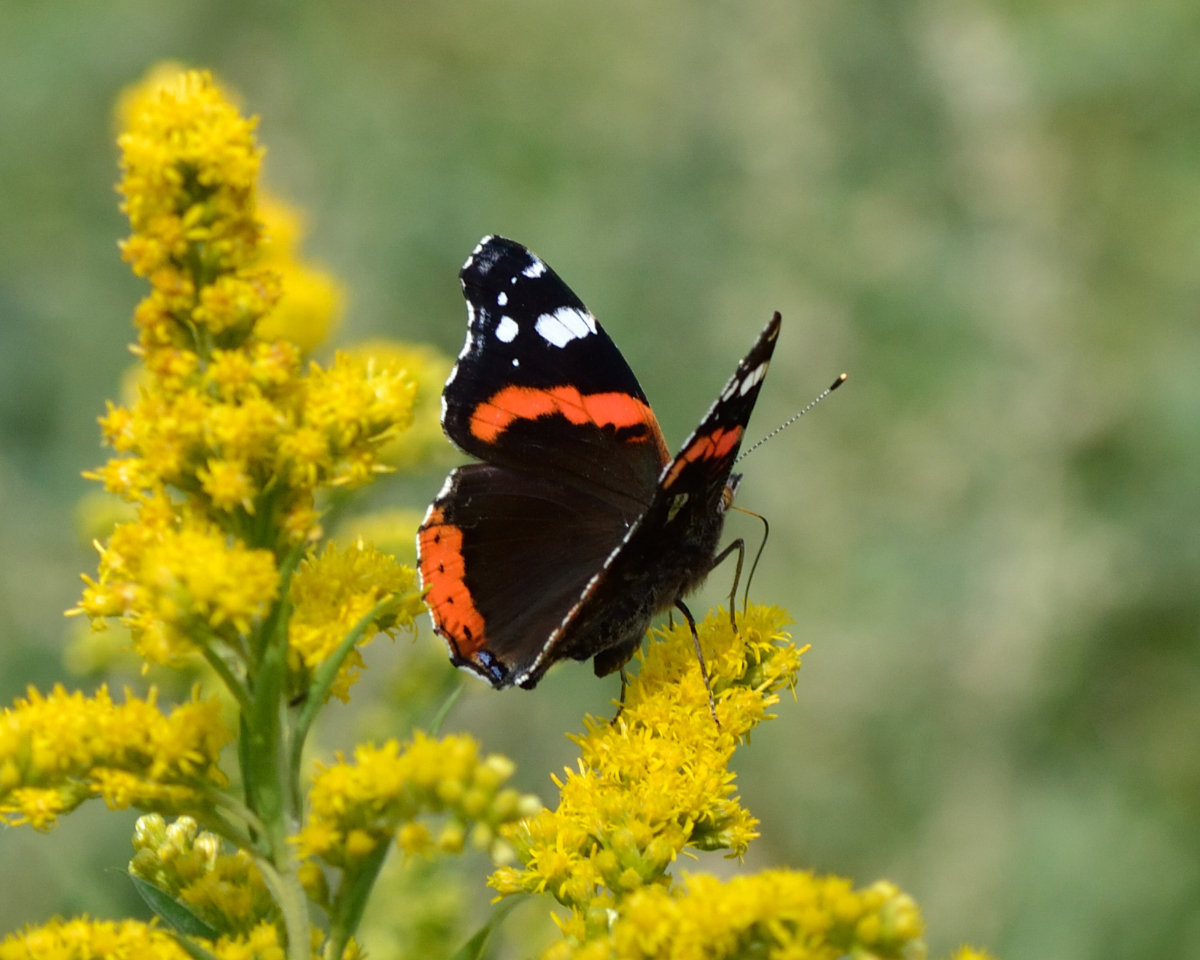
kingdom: Animalia
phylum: Arthropoda
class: Insecta
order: Lepidoptera
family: Nymphalidae
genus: Vanessa
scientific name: Vanessa atalanta
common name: Red admiral
